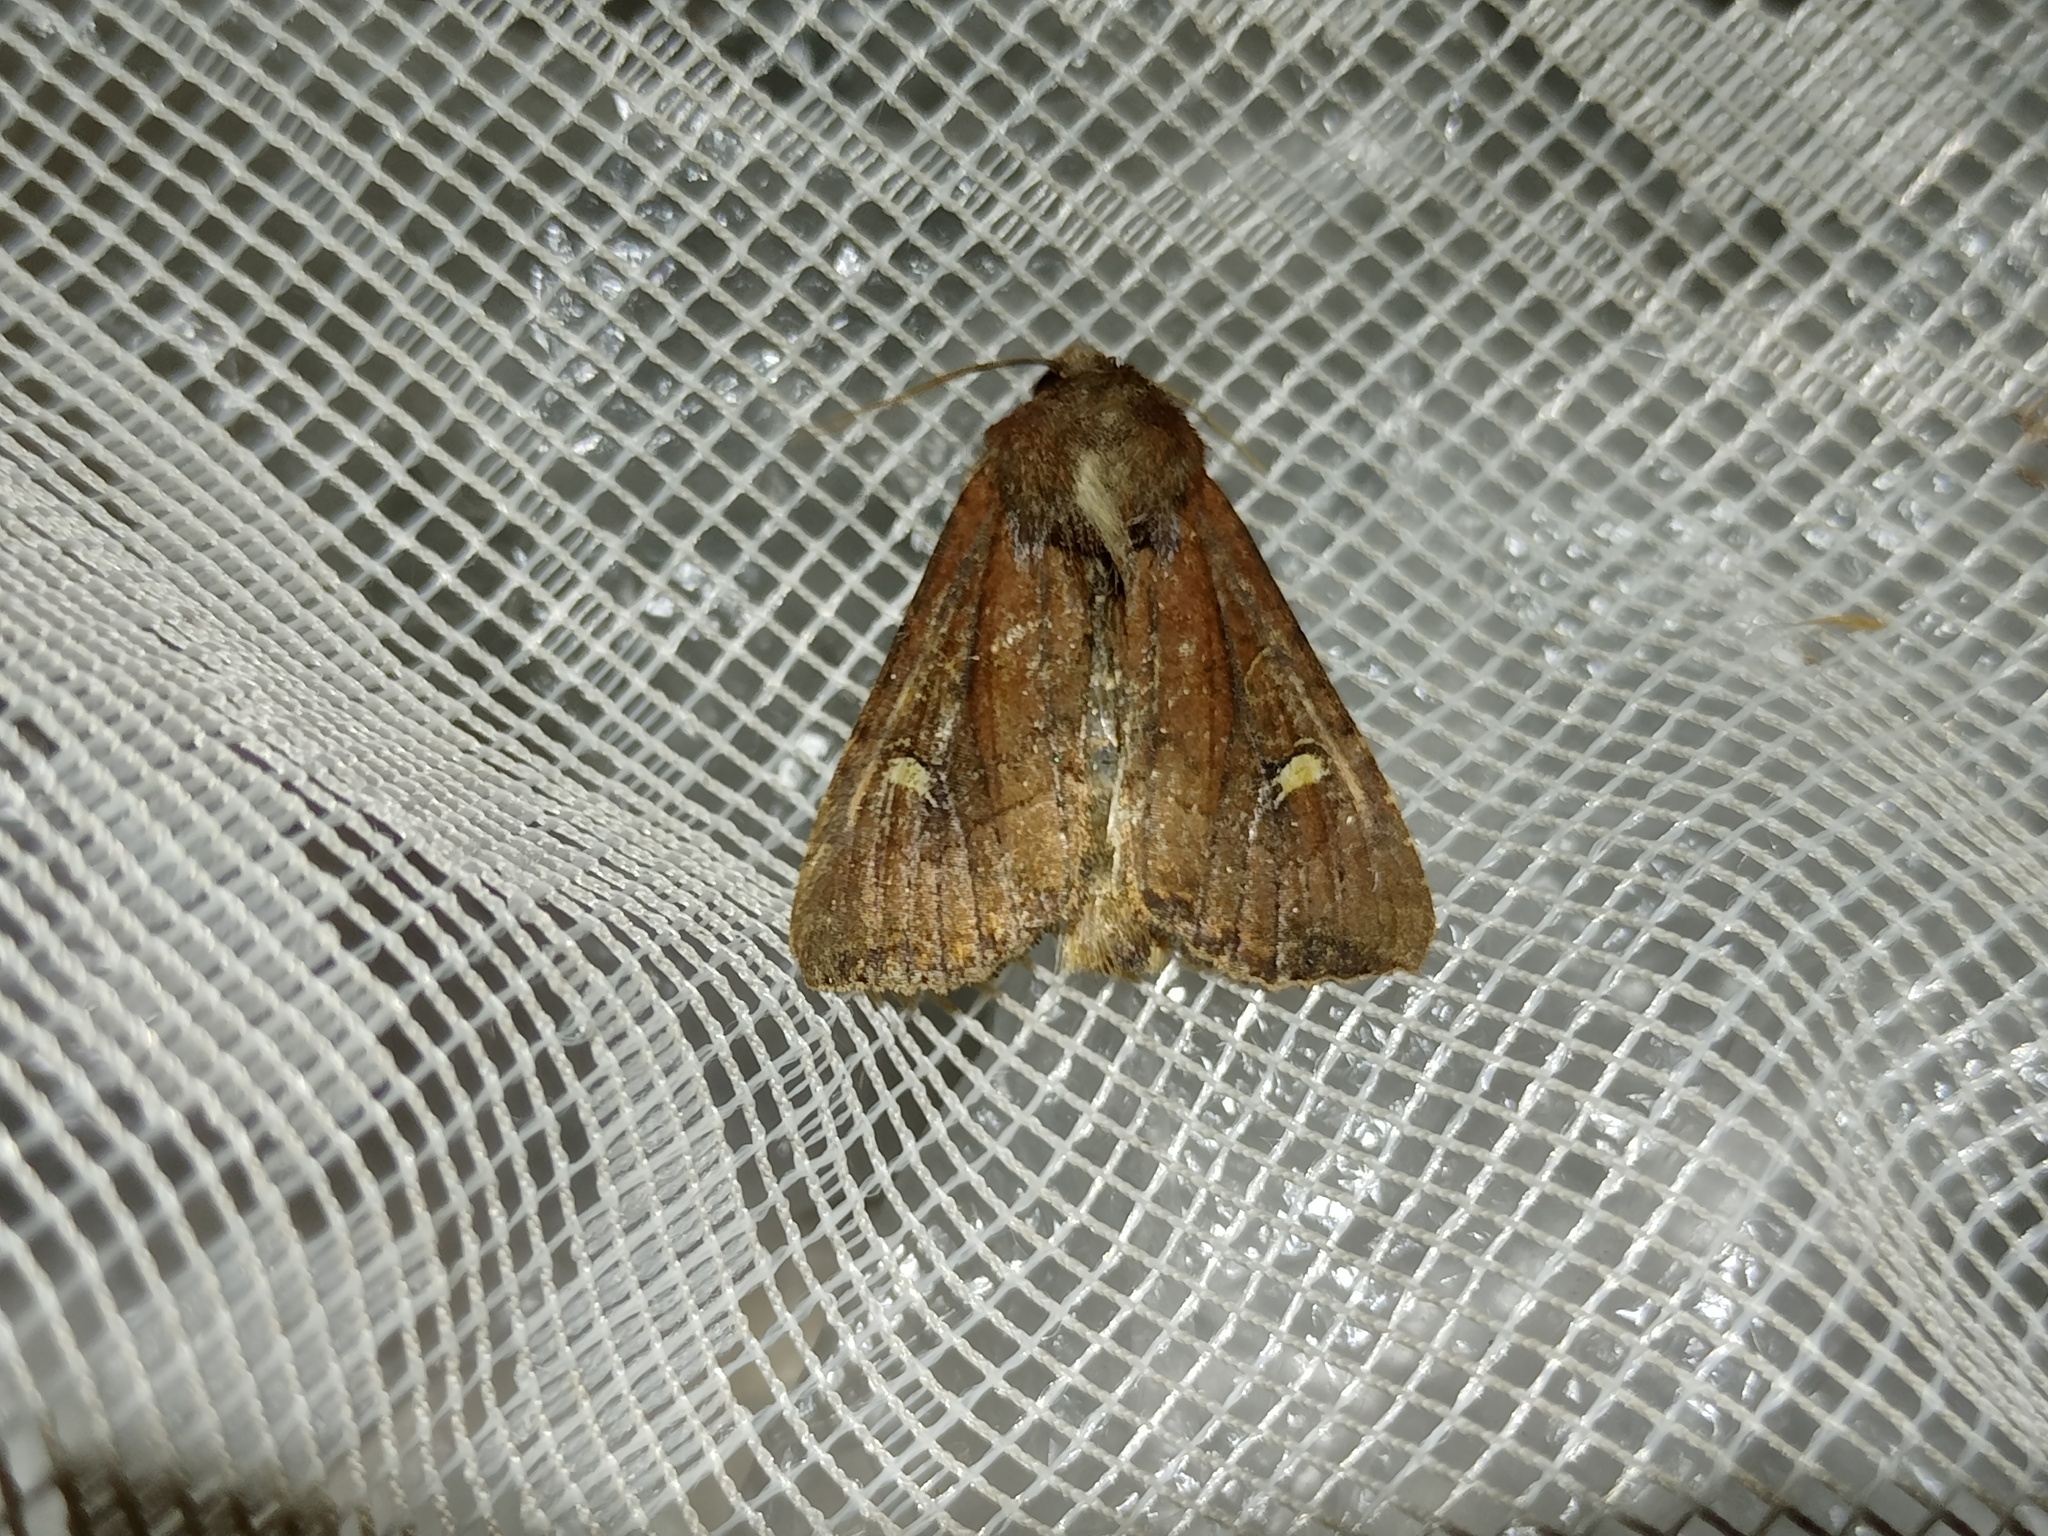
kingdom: Animalia
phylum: Arthropoda
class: Insecta
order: Lepidoptera
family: Noctuidae
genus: Helotropha
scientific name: Helotropha leucostigma
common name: The crescent
